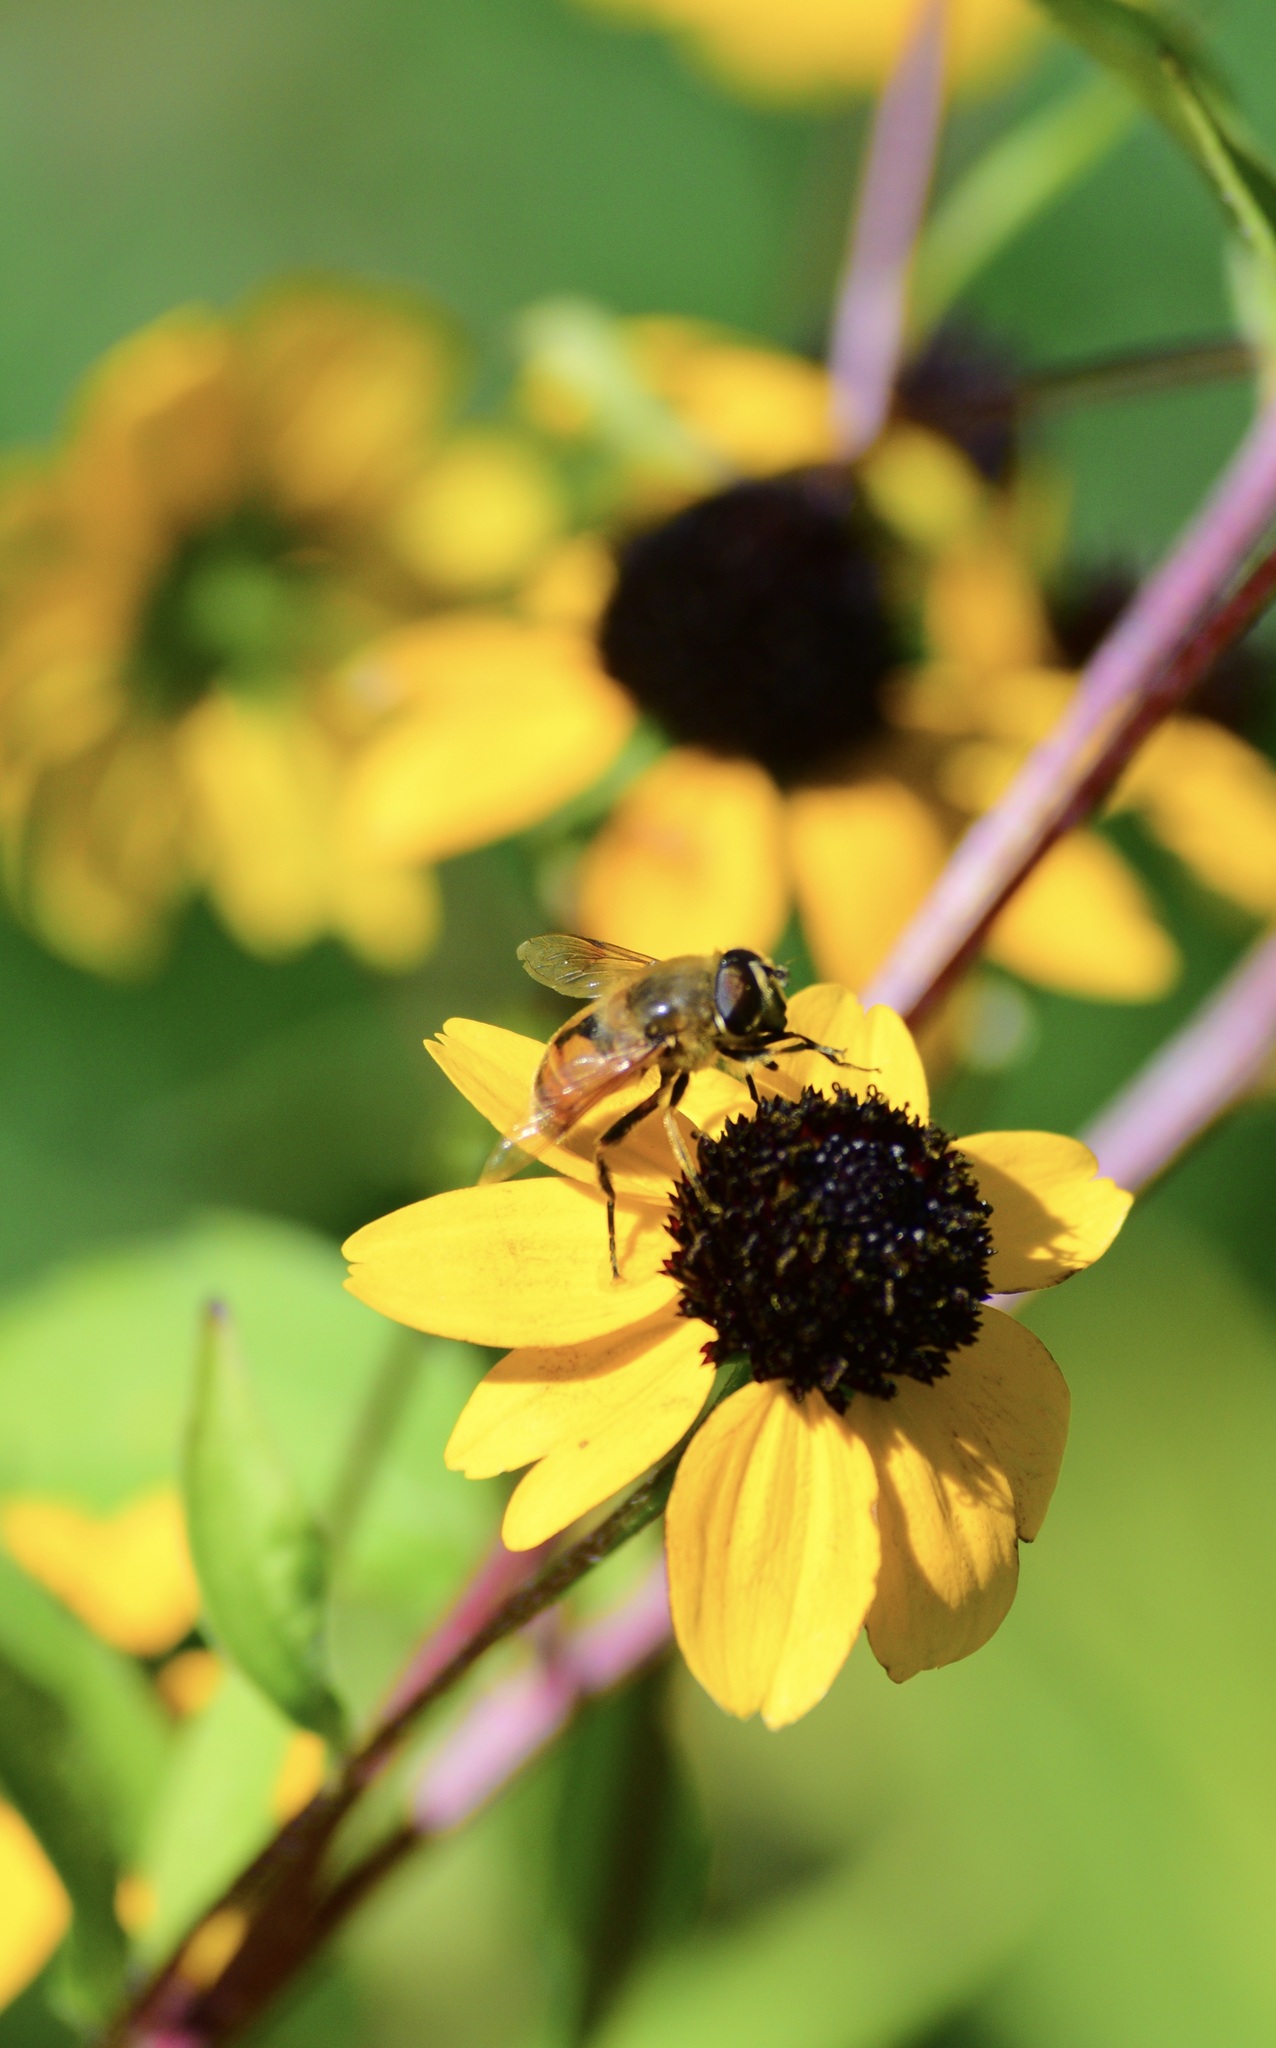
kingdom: Animalia
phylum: Arthropoda
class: Insecta
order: Diptera
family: Syrphidae
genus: Eristalis
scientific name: Eristalis tenax
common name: Drone fly
